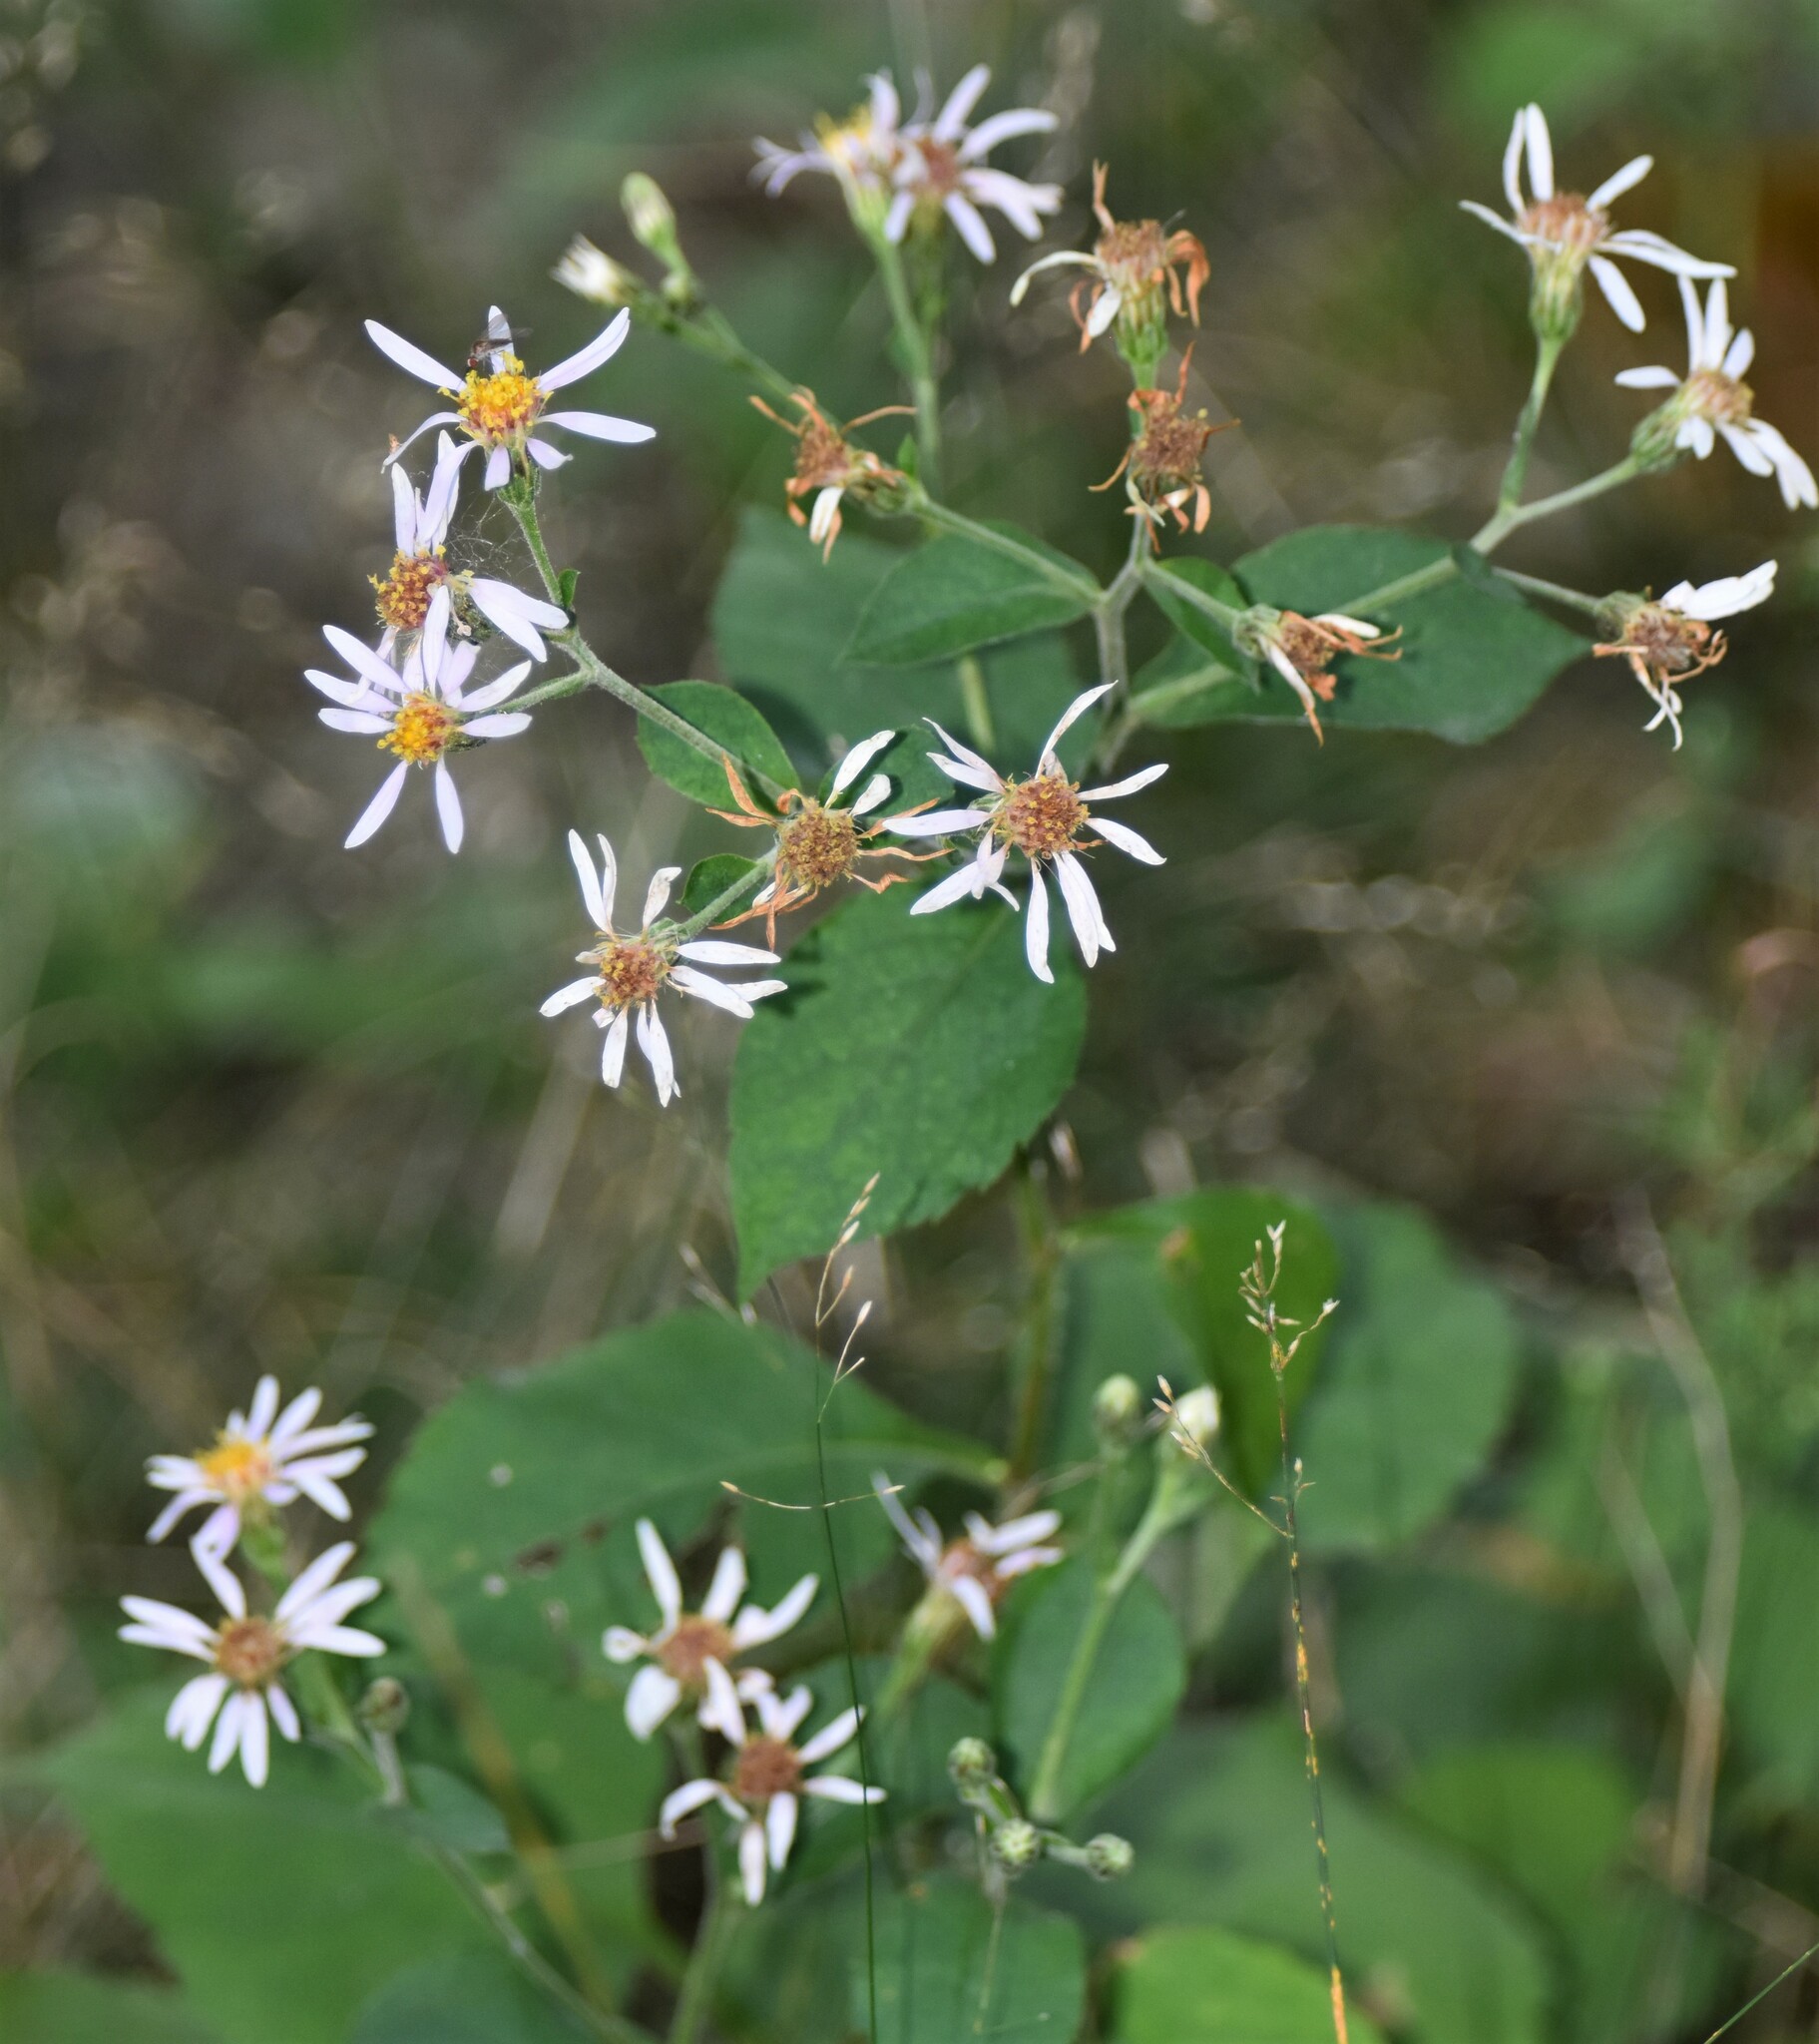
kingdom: Plantae
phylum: Tracheophyta
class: Magnoliopsida
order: Asterales
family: Asteraceae
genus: Eurybia
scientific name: Eurybia macrophylla
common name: Big-leaved aster
